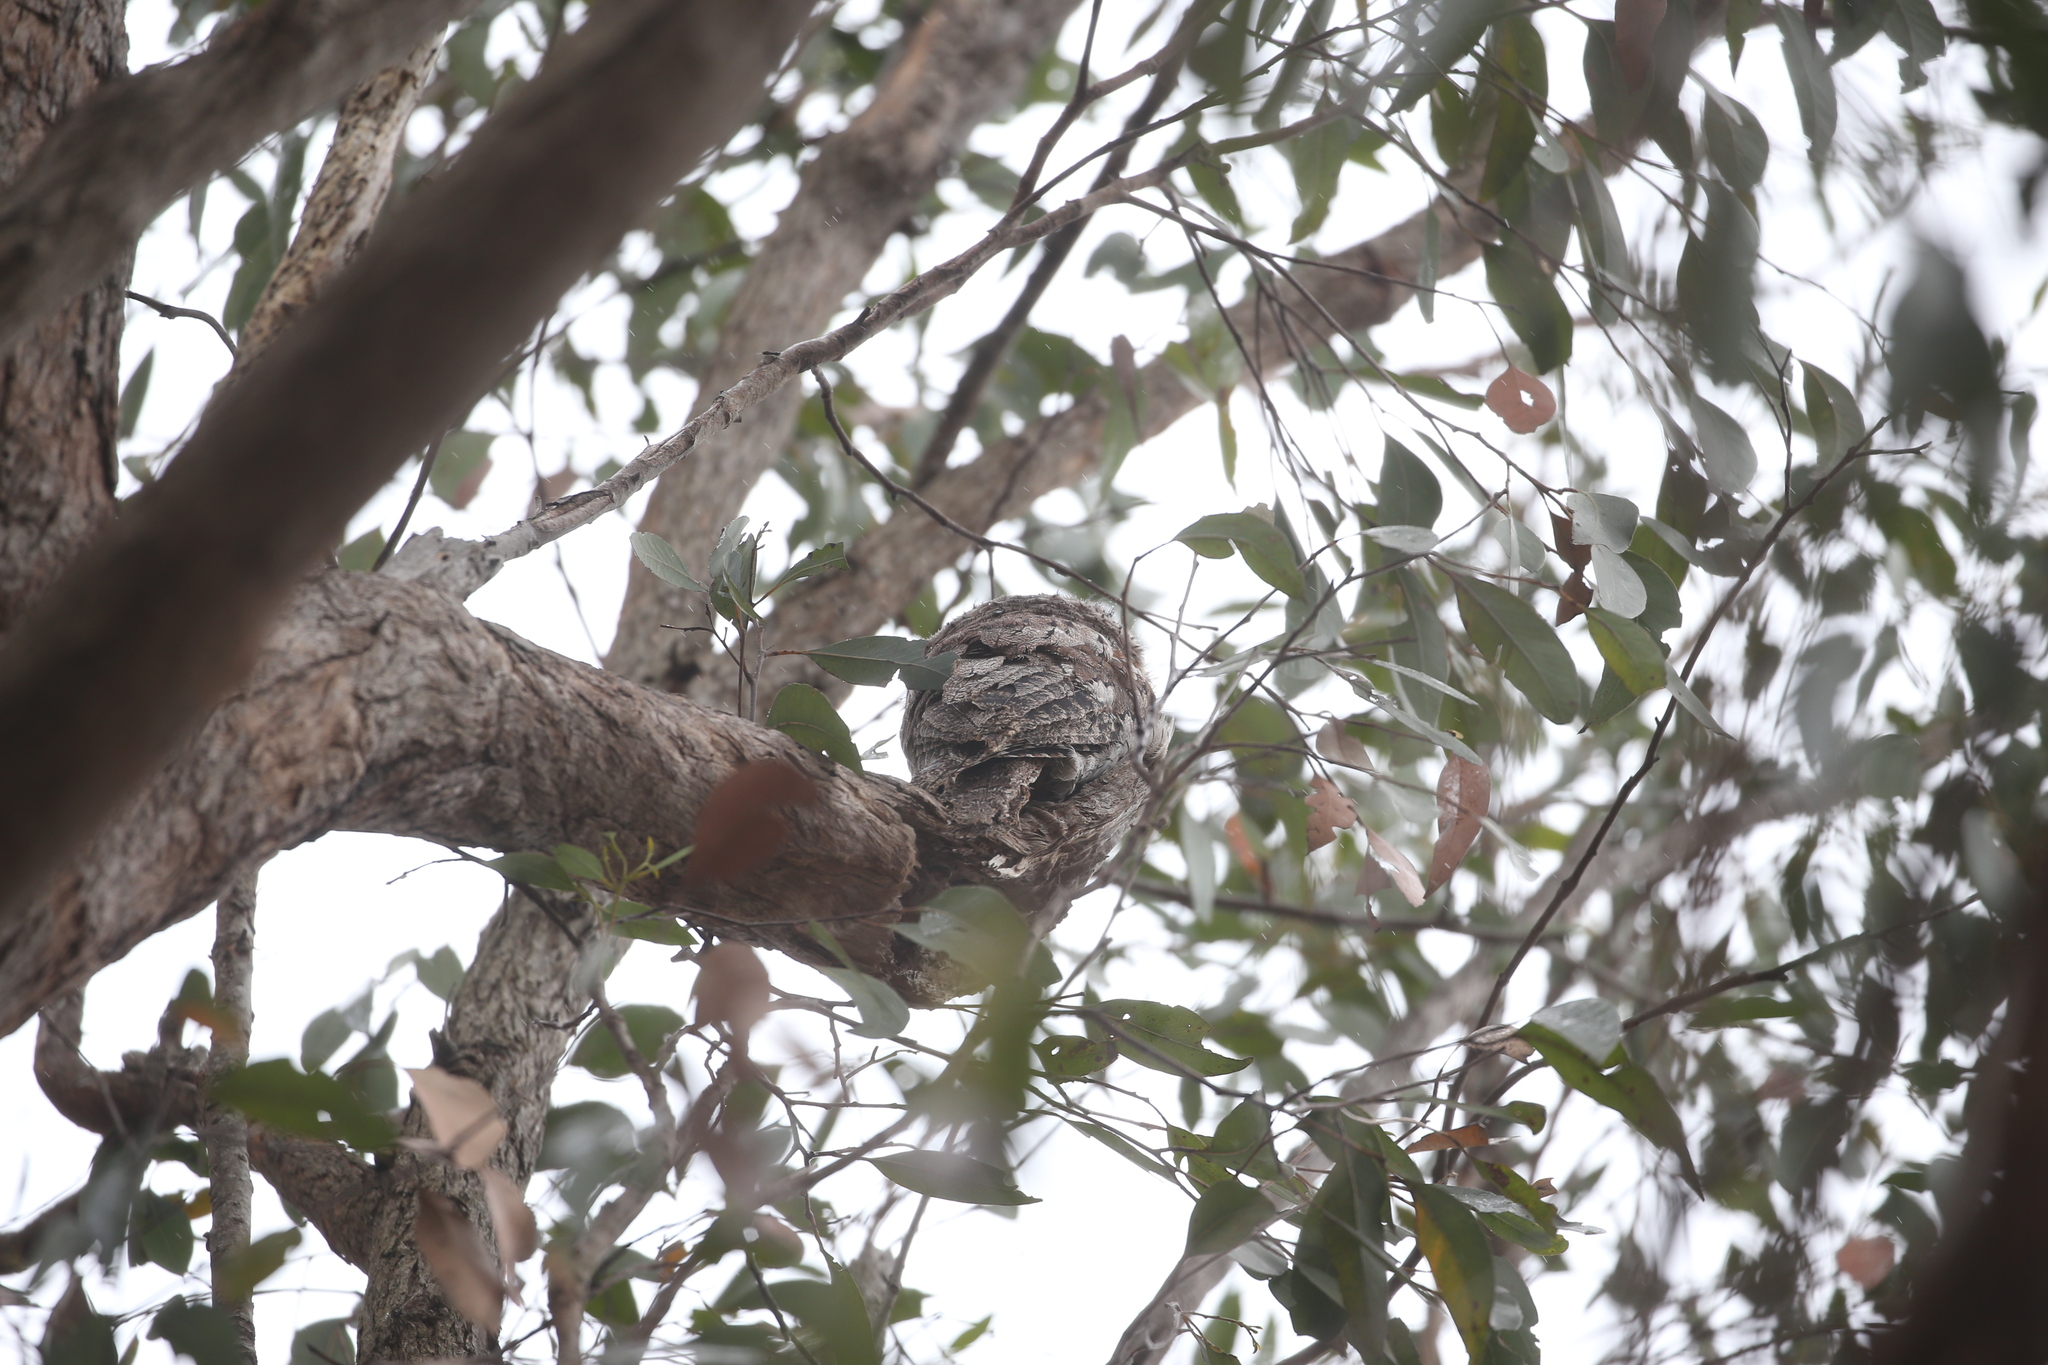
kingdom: Animalia
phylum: Chordata
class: Aves
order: Caprimulgiformes
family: Podargidae
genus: Podargus
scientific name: Podargus strigoides
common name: Tawny frogmouth
